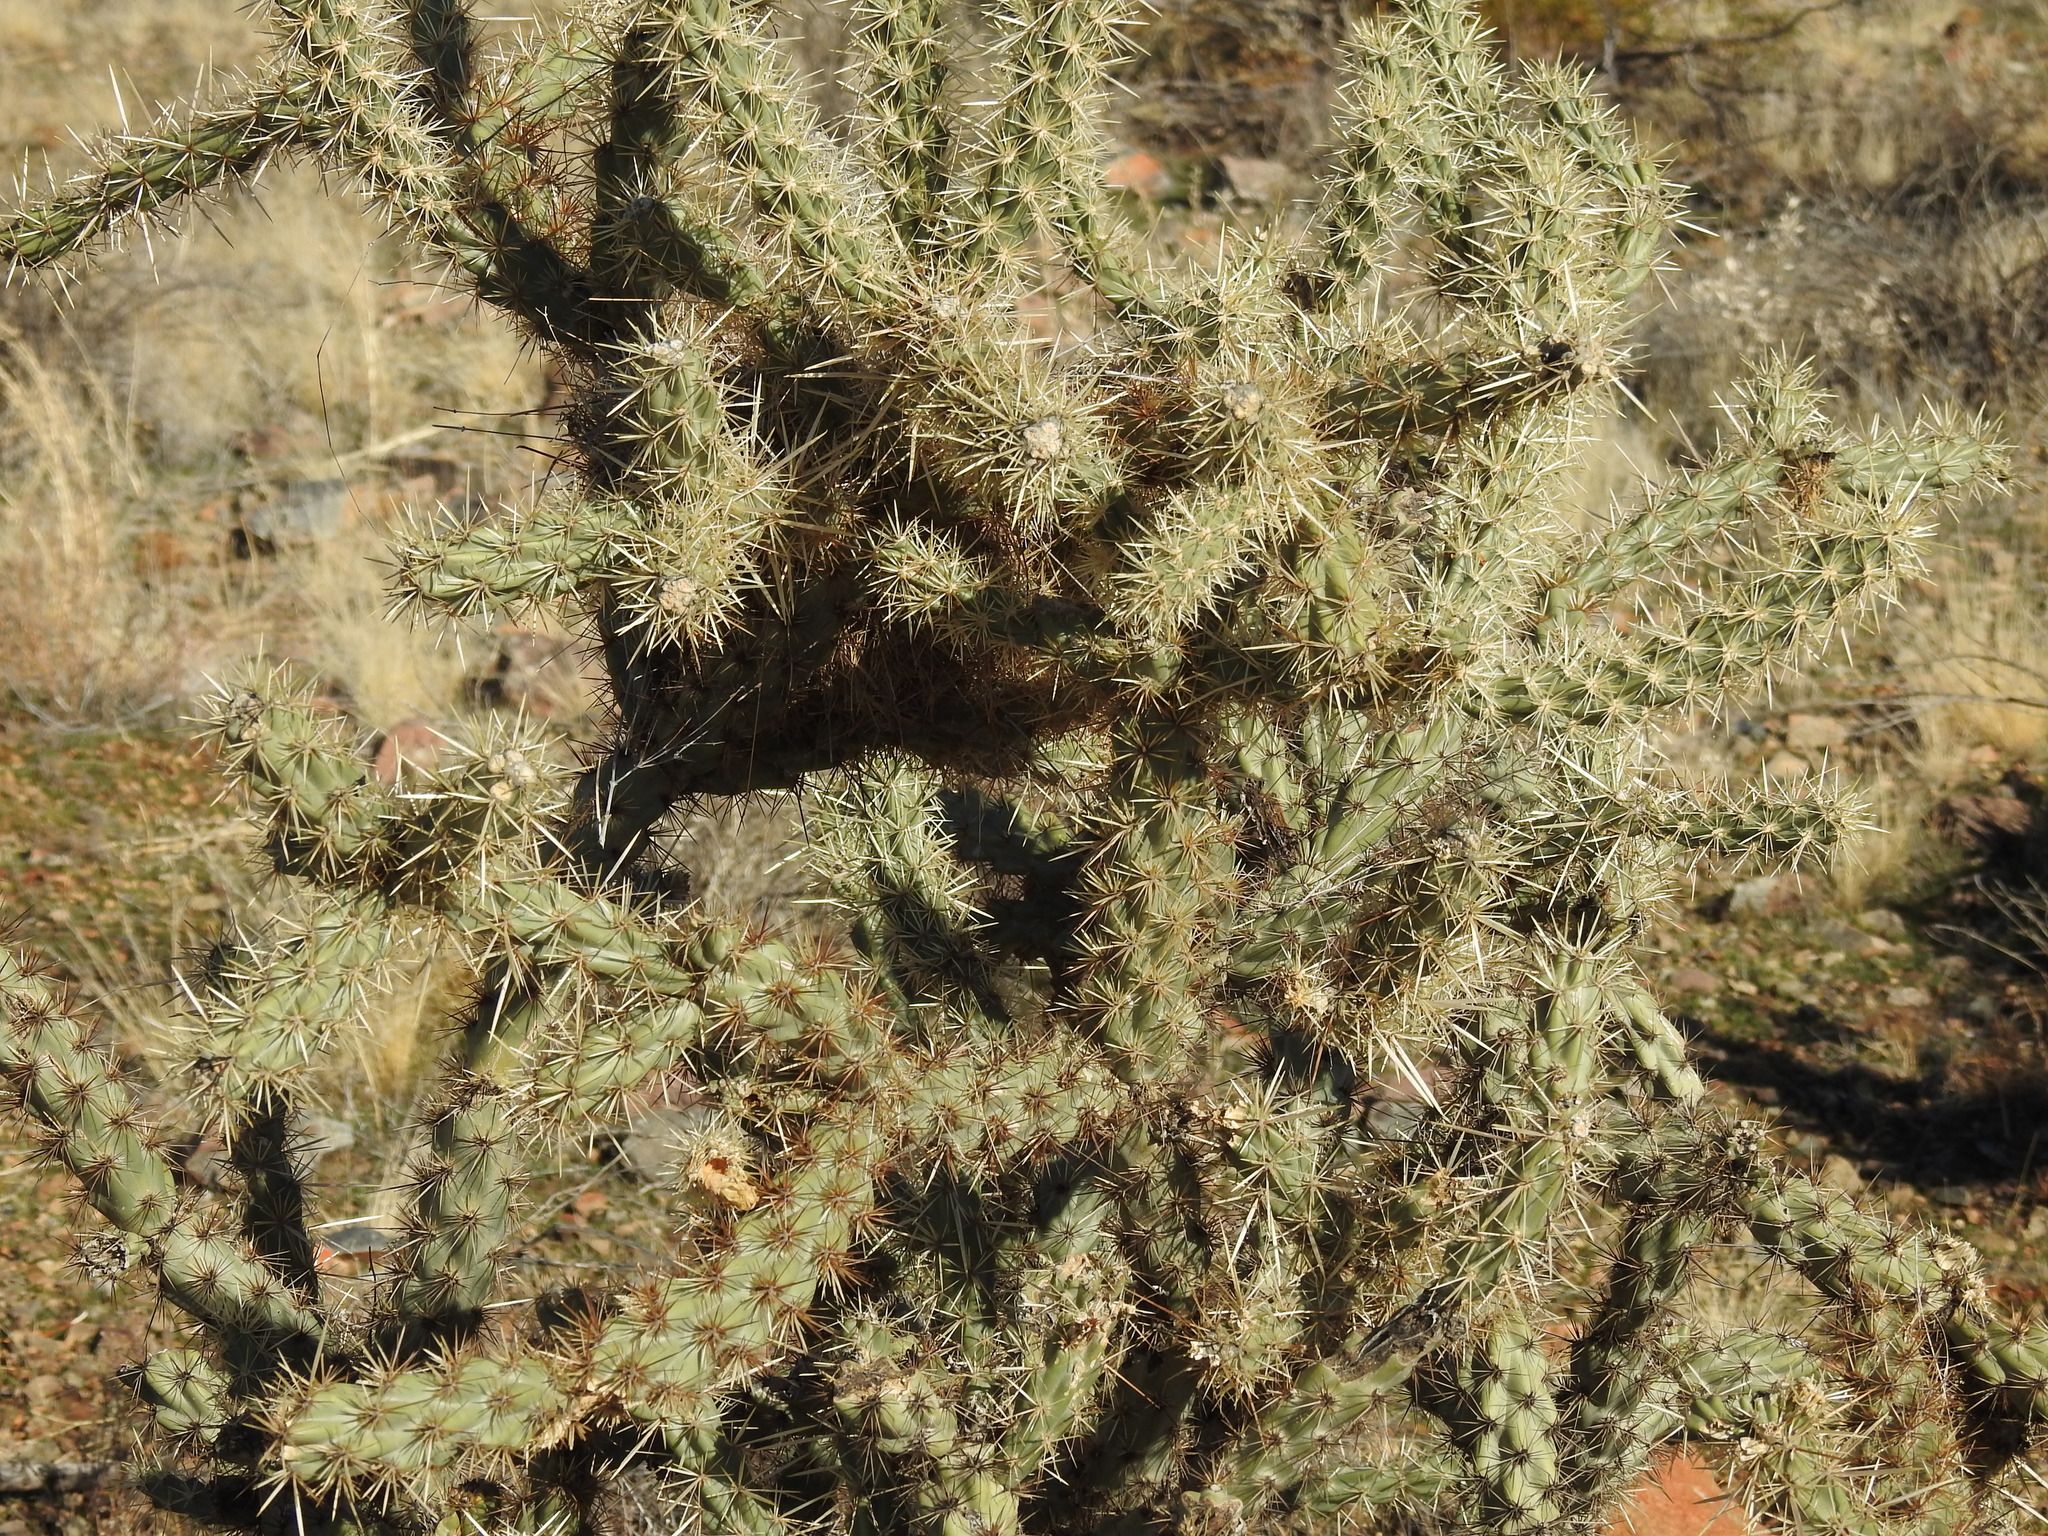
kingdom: Plantae
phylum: Tracheophyta
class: Magnoliopsida
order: Caryophyllales
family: Cactaceae
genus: Cylindropuntia
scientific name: Cylindropuntia acanthocarpa
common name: Buckhorn cholla
